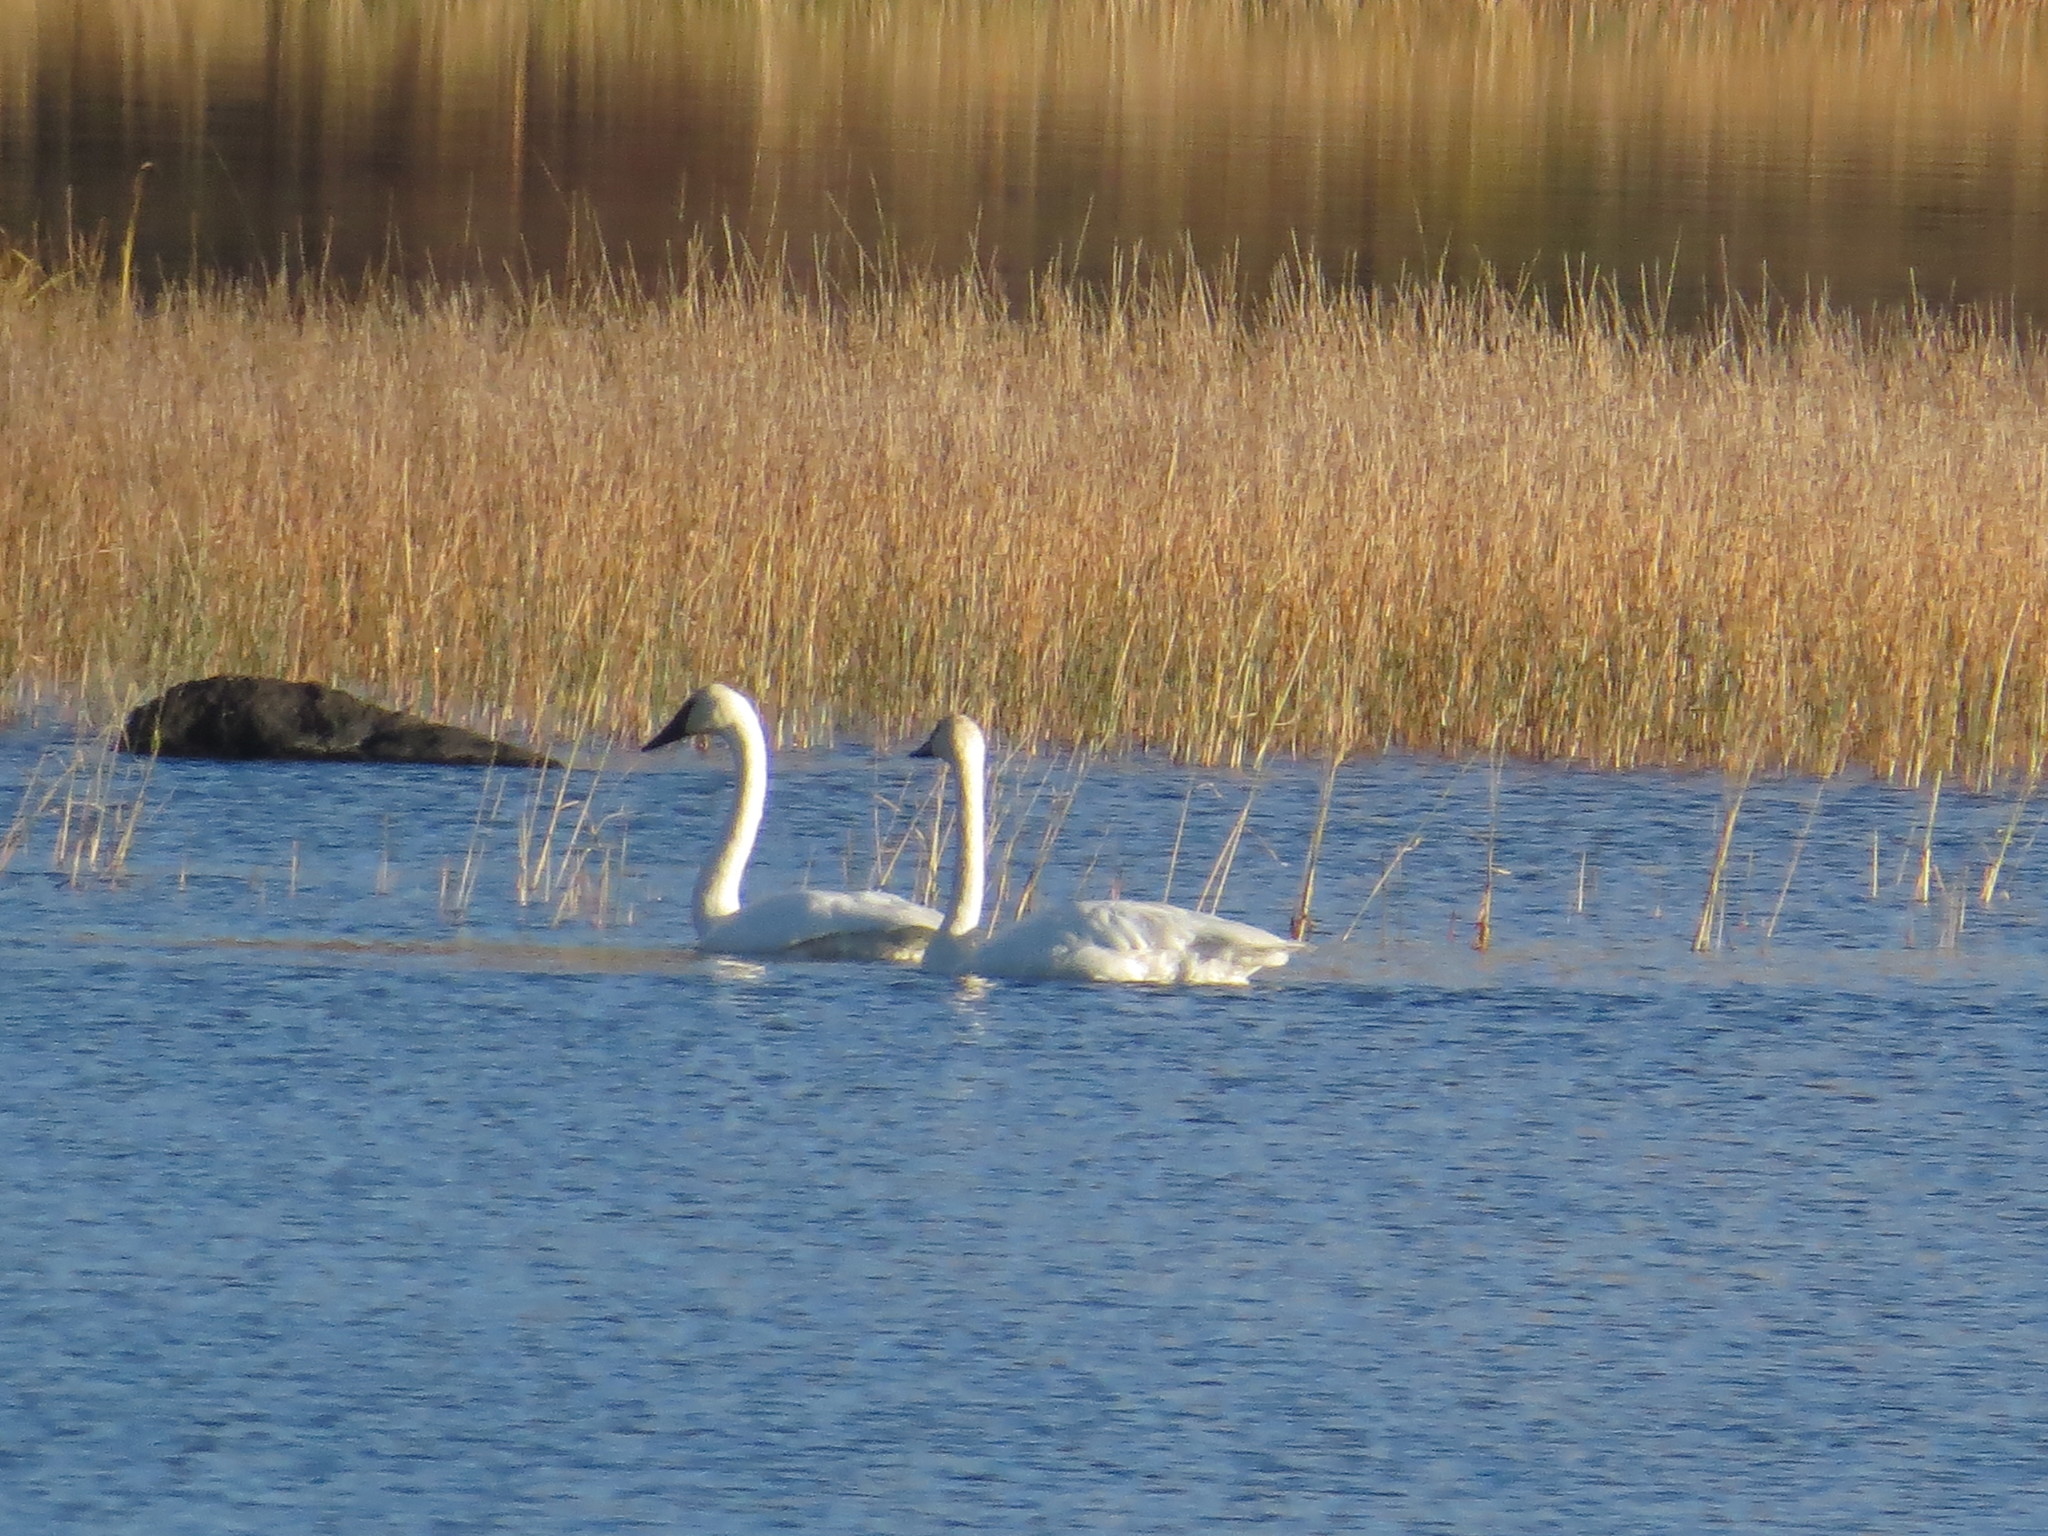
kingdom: Animalia
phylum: Chordata
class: Aves
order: Anseriformes
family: Anatidae
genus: Cygnus
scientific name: Cygnus buccinator
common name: Trumpeter swan
